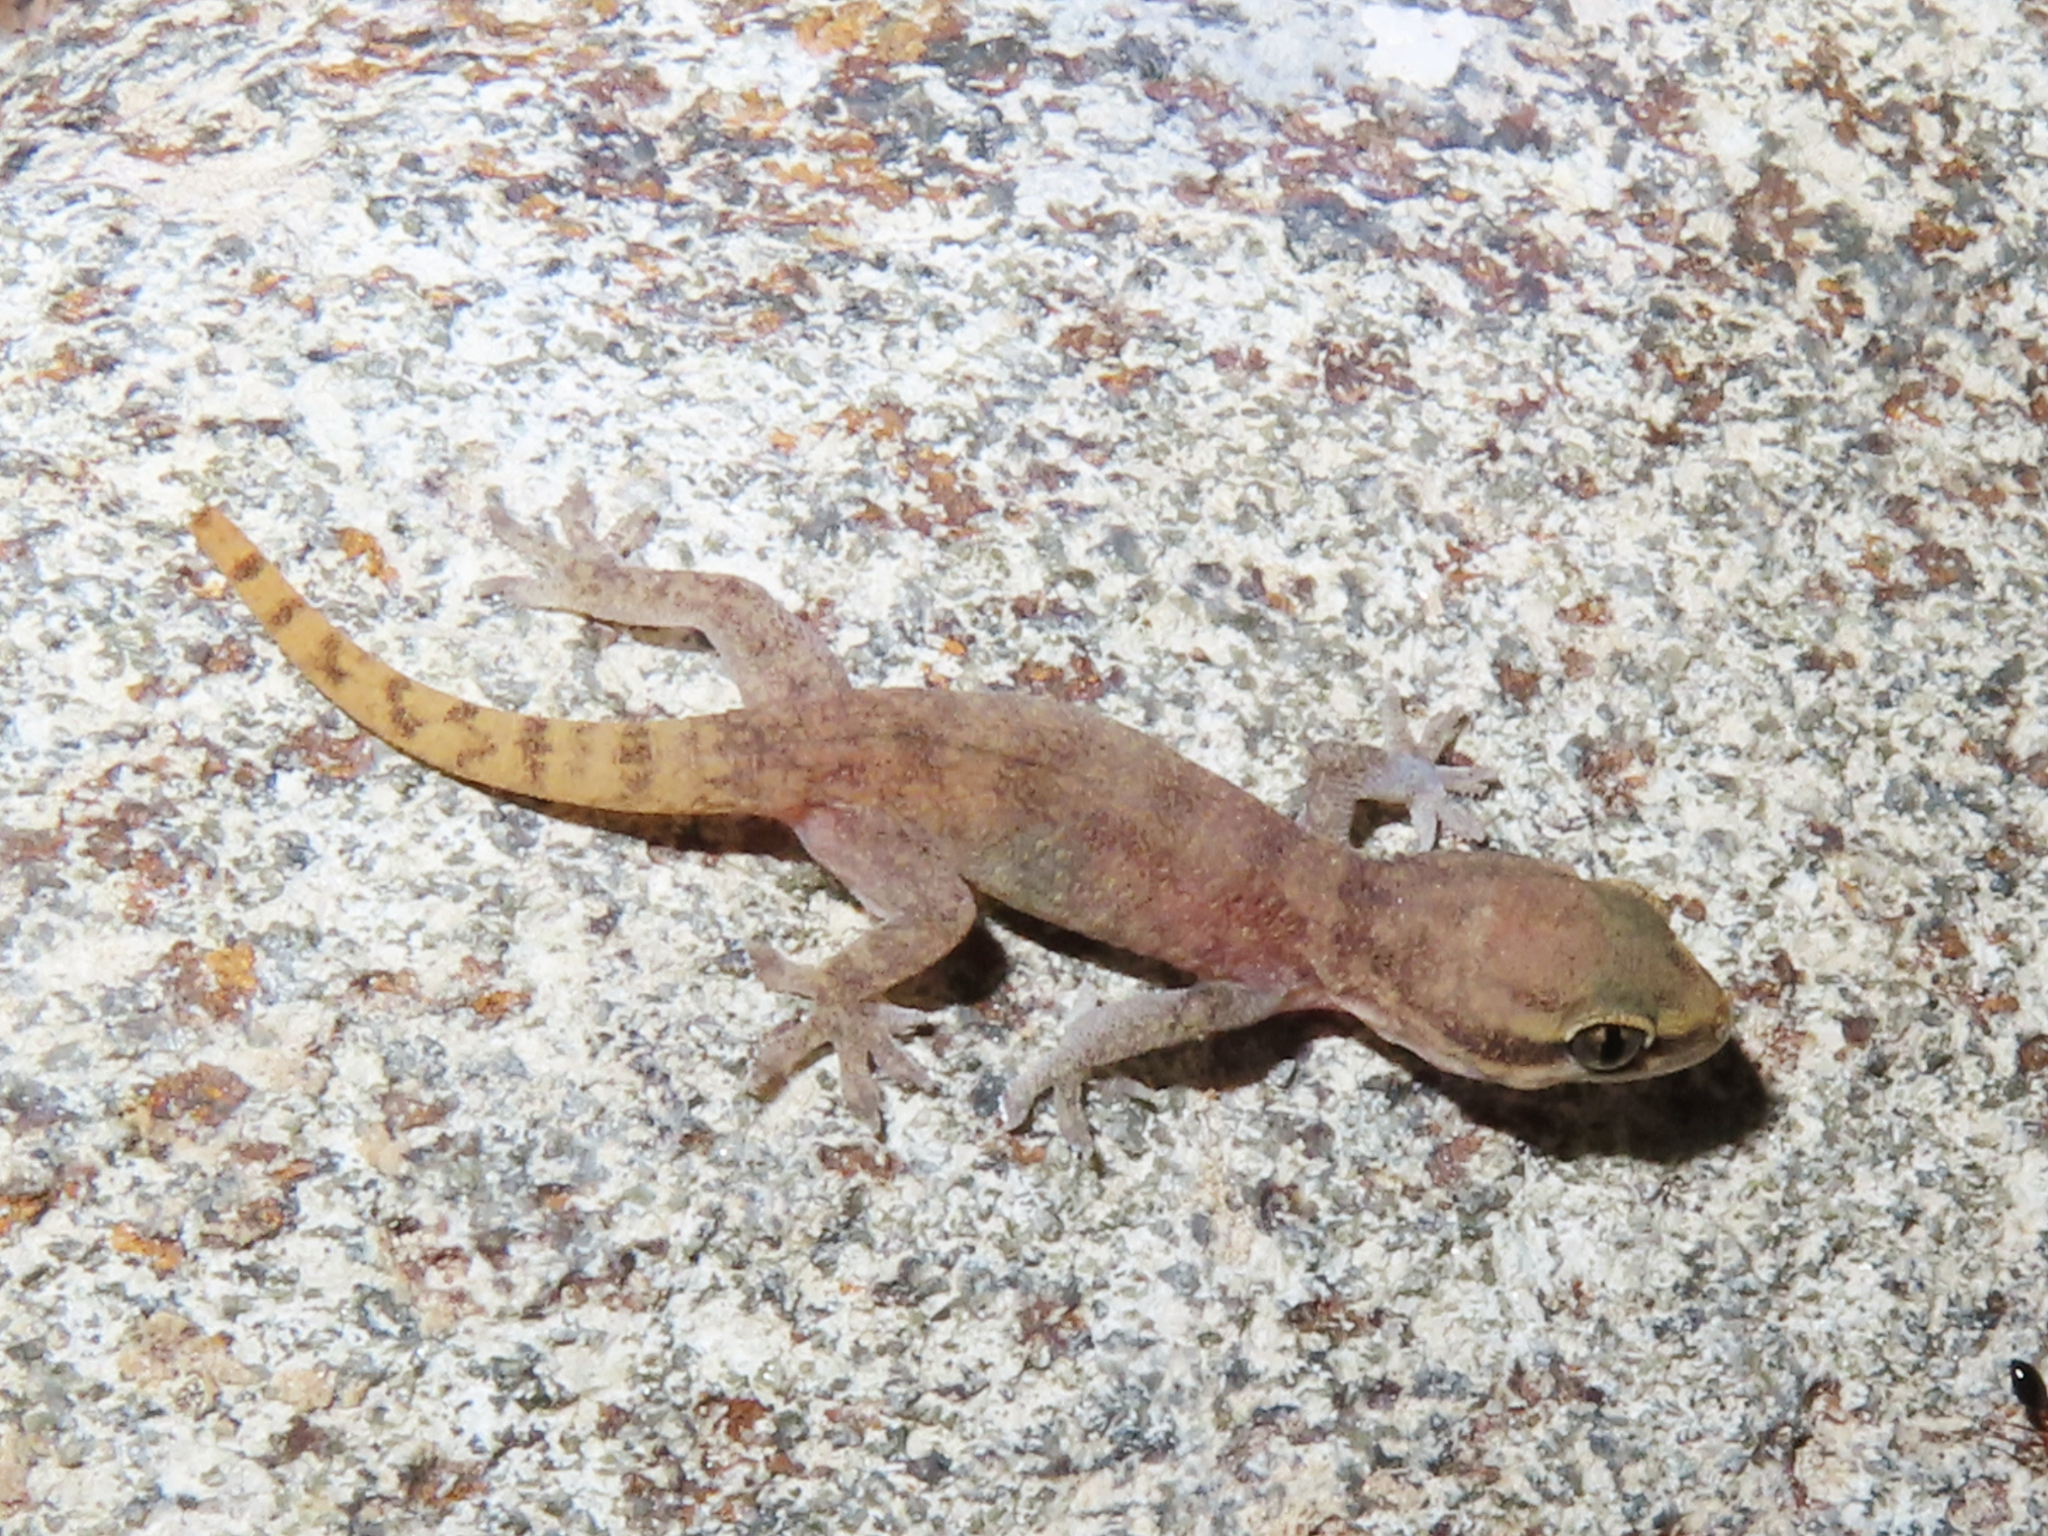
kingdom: Animalia
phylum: Chordata
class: Squamata
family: Gekkonidae
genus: Hemidactylus
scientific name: Hemidactylus robustus
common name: Heyden’s gecko
